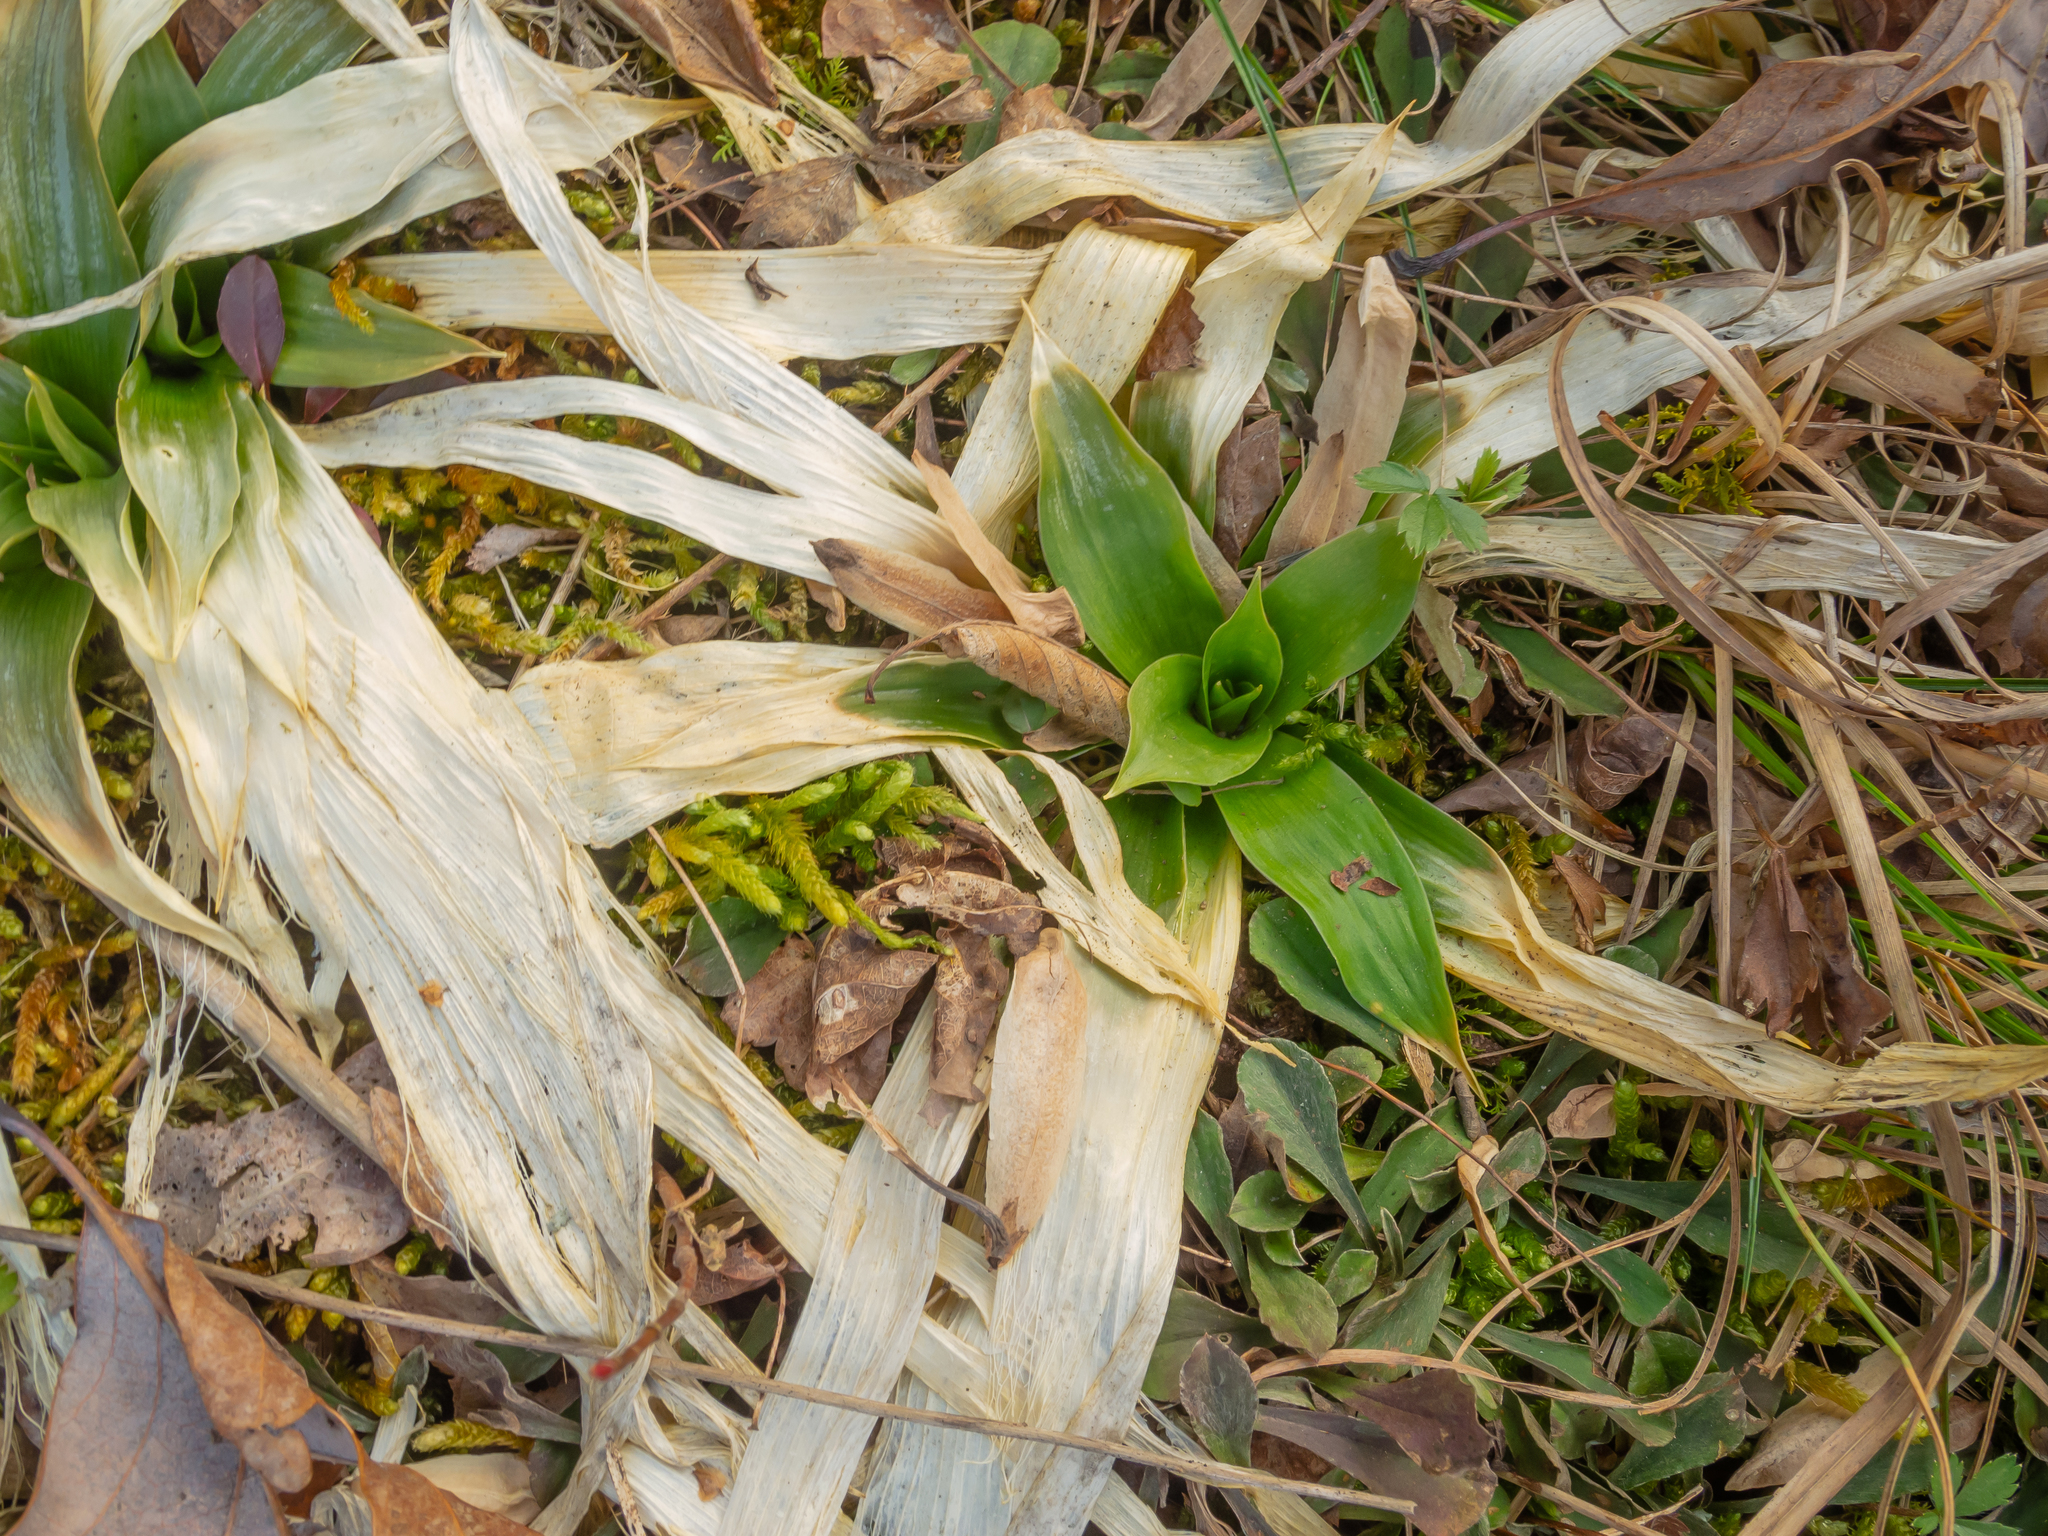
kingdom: Plantae
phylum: Tracheophyta
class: Liliopsida
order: Dioscoreales
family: Nartheciaceae
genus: Aletris
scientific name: Aletris farinosa
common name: Colicroot
